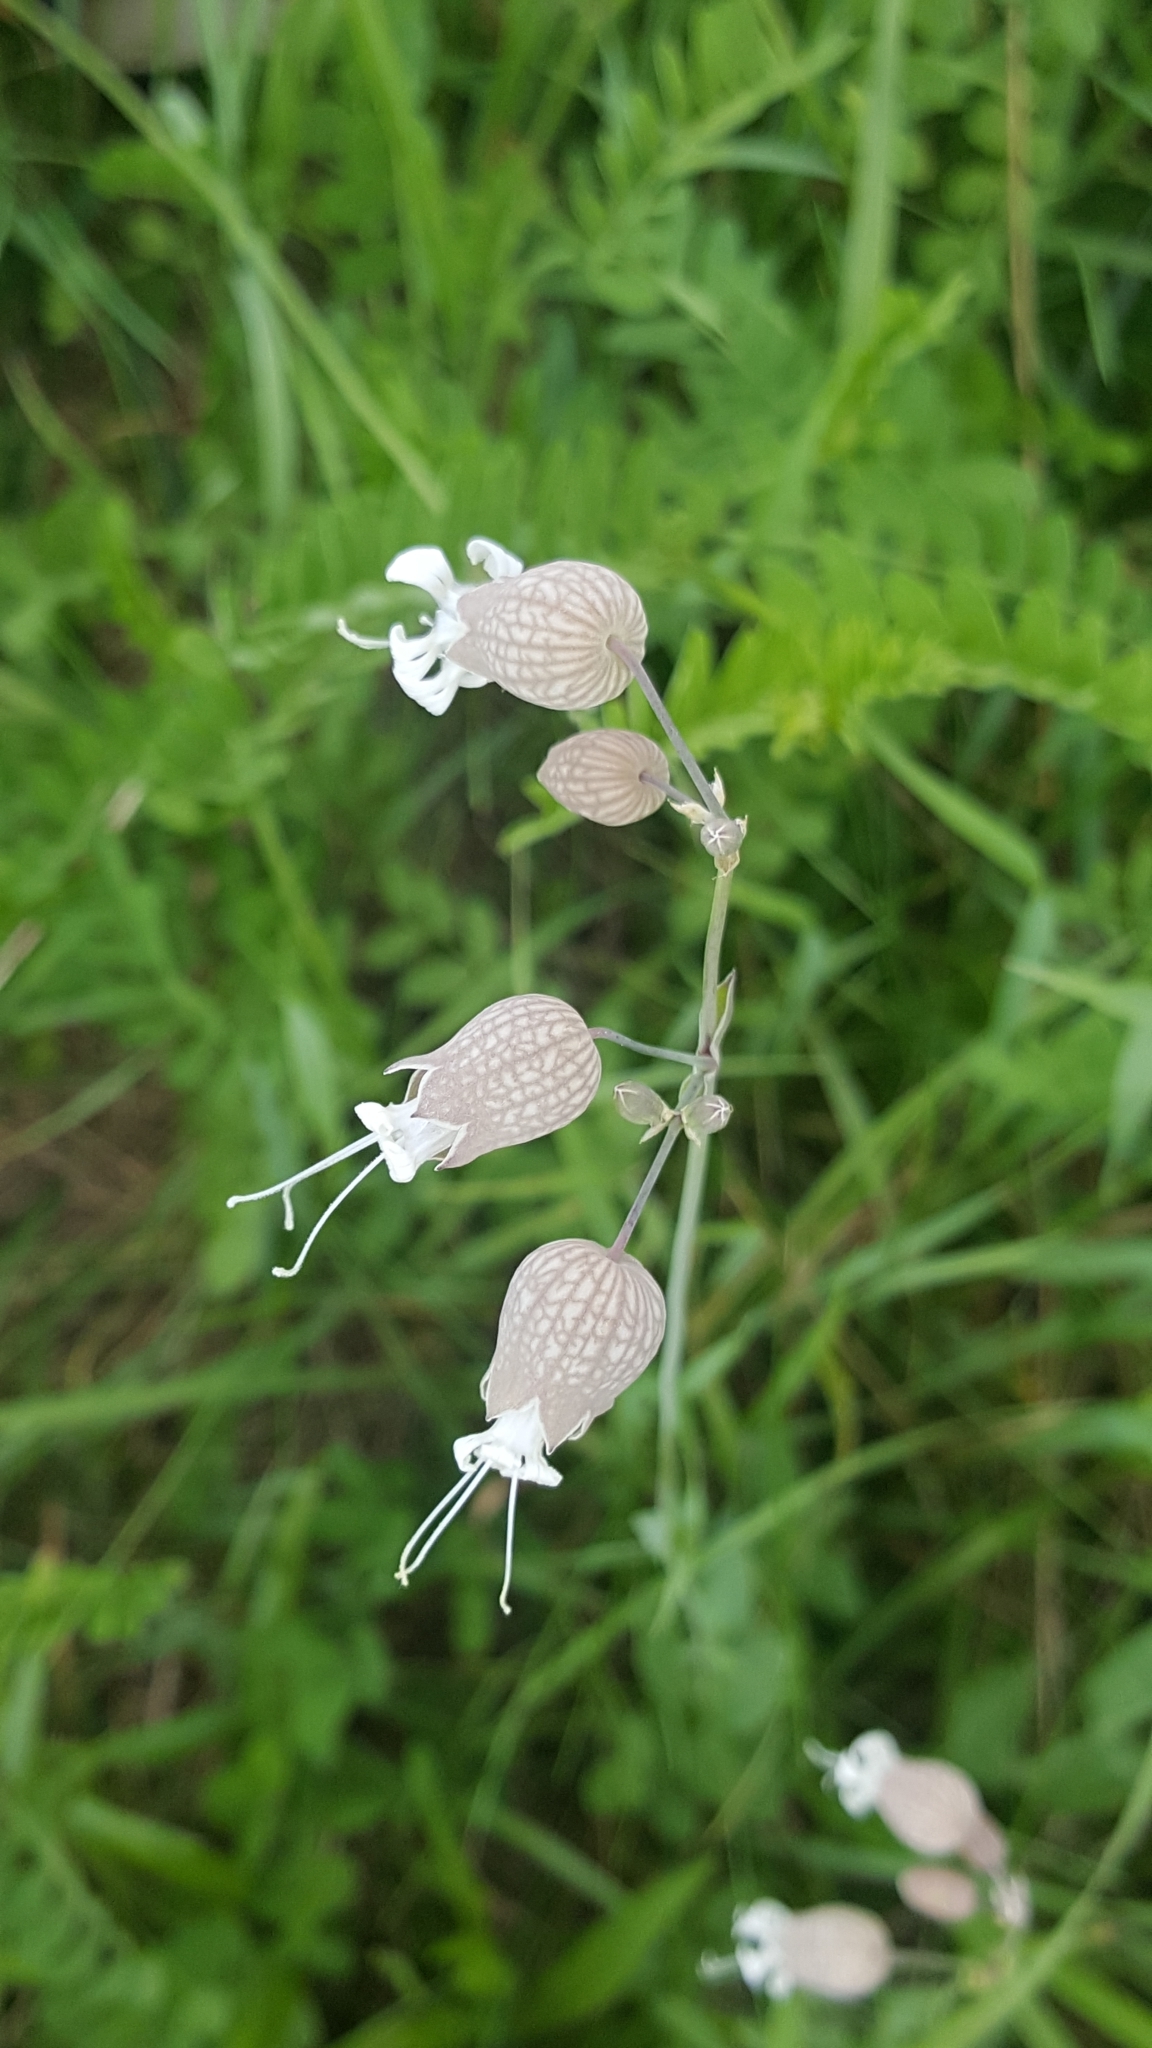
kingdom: Plantae
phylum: Tracheophyta
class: Magnoliopsida
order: Caryophyllales
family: Caryophyllaceae
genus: Silene
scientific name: Silene vulgaris
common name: Bladder campion
